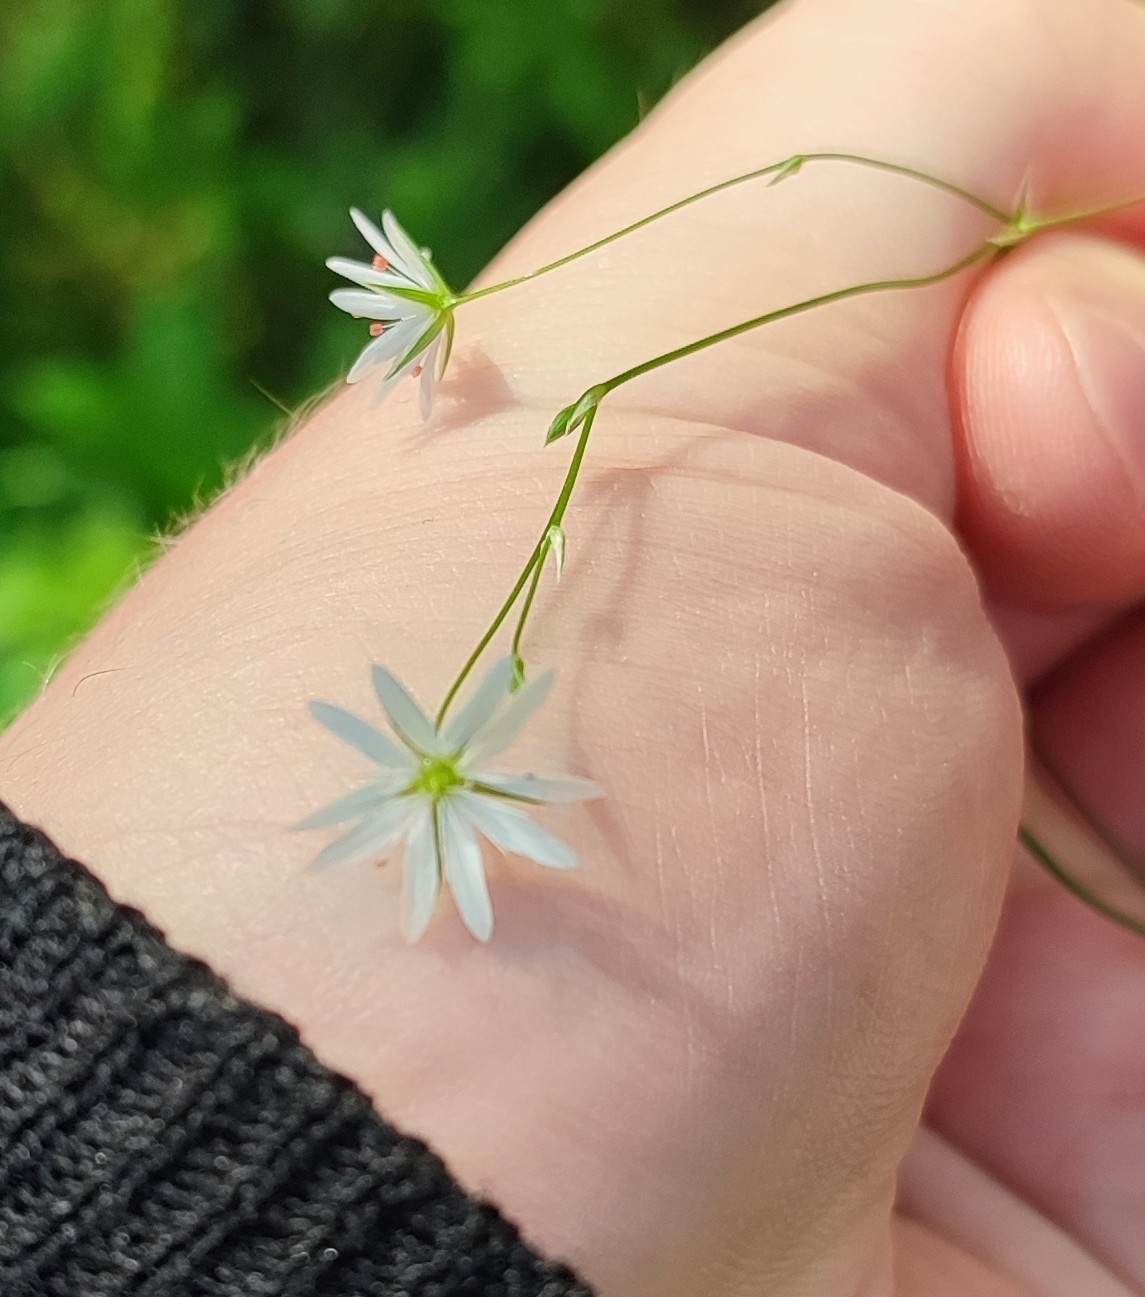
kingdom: Plantae
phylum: Tracheophyta
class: Magnoliopsida
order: Caryophyllales
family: Caryophyllaceae
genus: Stellaria
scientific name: Stellaria graminea
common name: Grass-like starwort
